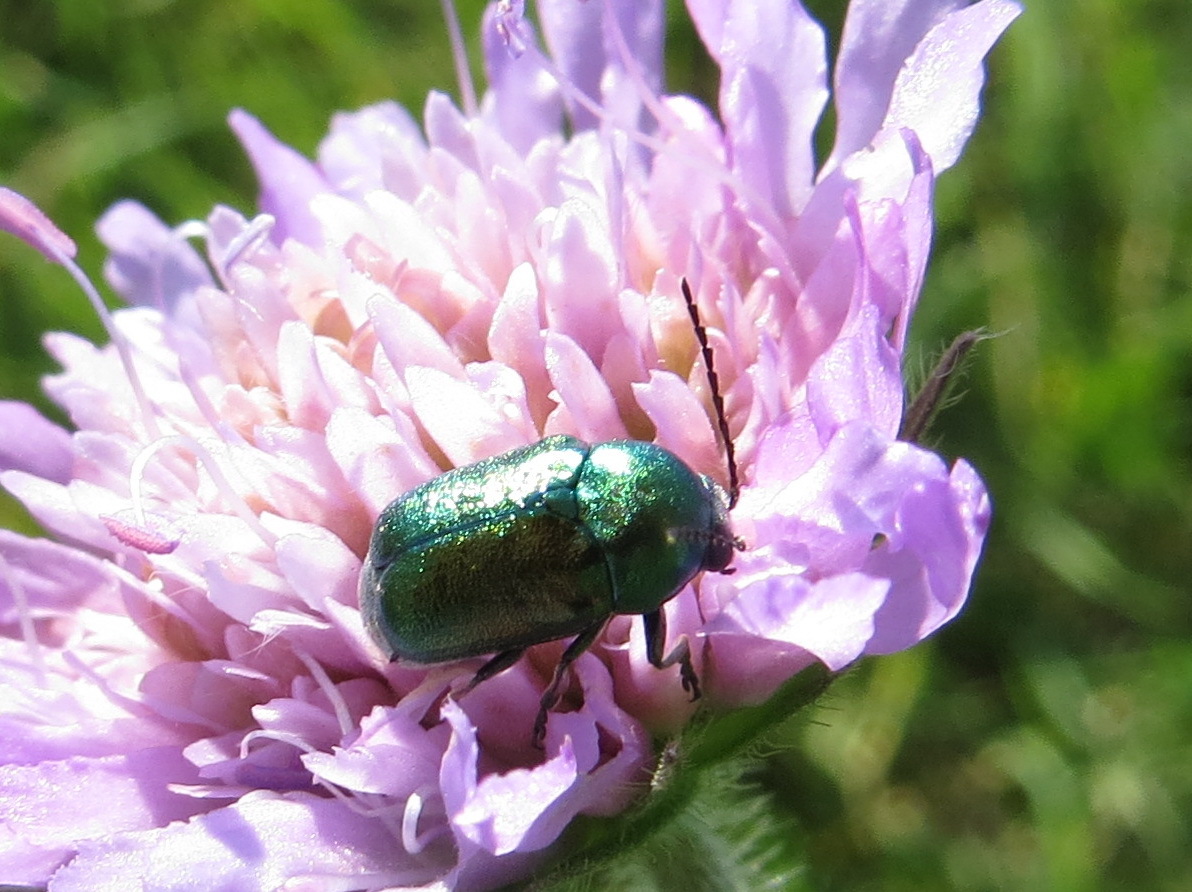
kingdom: Animalia
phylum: Arthropoda
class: Insecta
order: Coleoptera
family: Chrysomelidae
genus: Cryptocephalus
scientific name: Cryptocephalus sericeus
